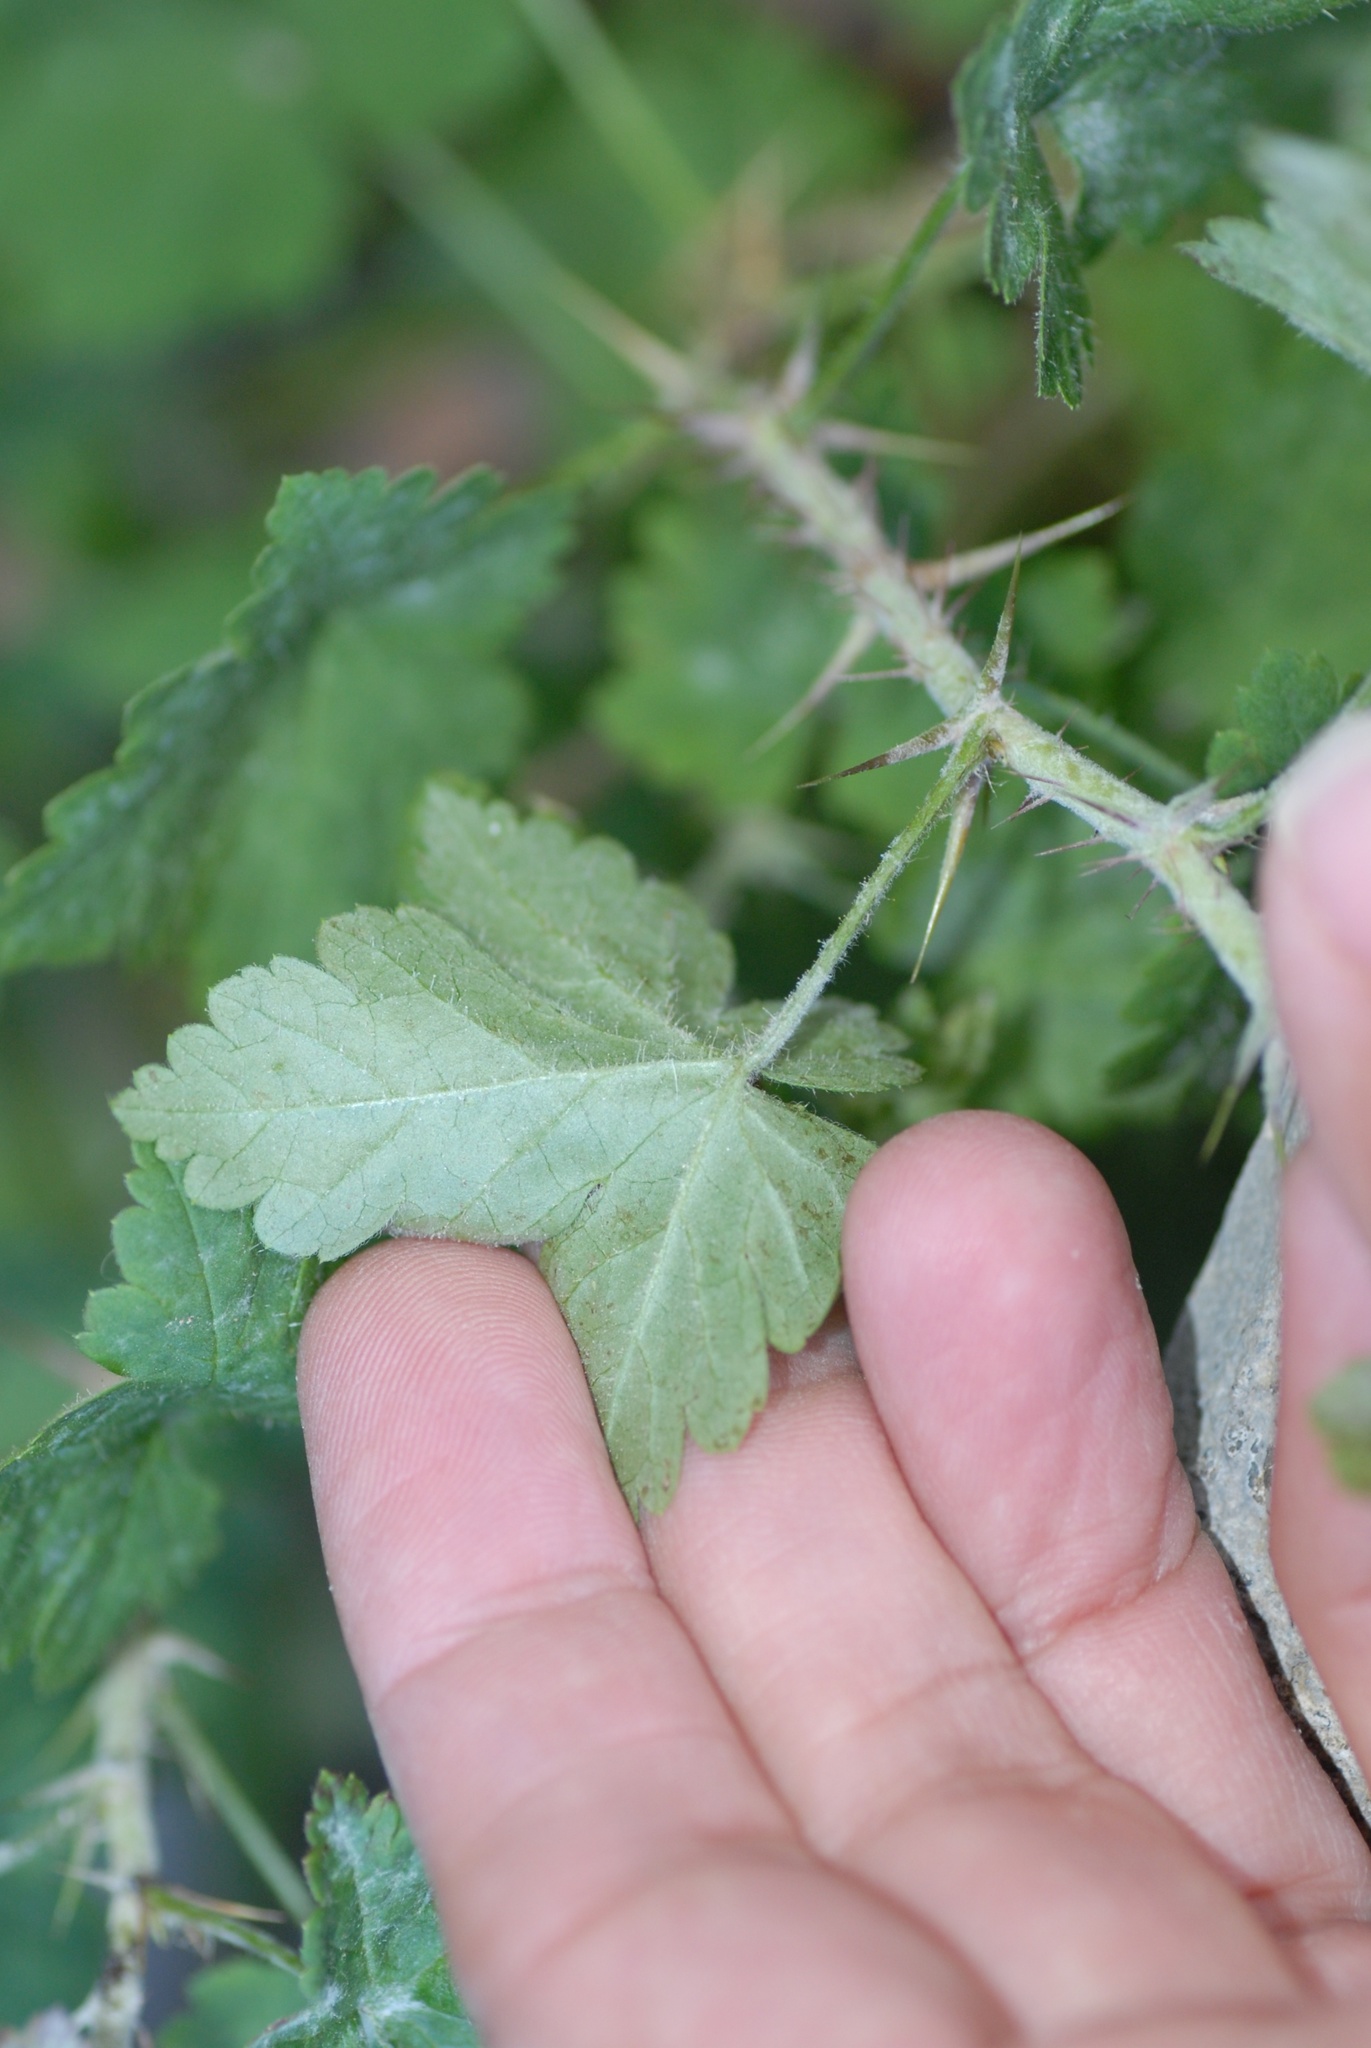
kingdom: Plantae
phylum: Tracheophyta
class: Magnoliopsida
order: Saxifragales
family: Grossulariaceae
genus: Ribes
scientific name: Ribes uva-crispa
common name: Gooseberry
